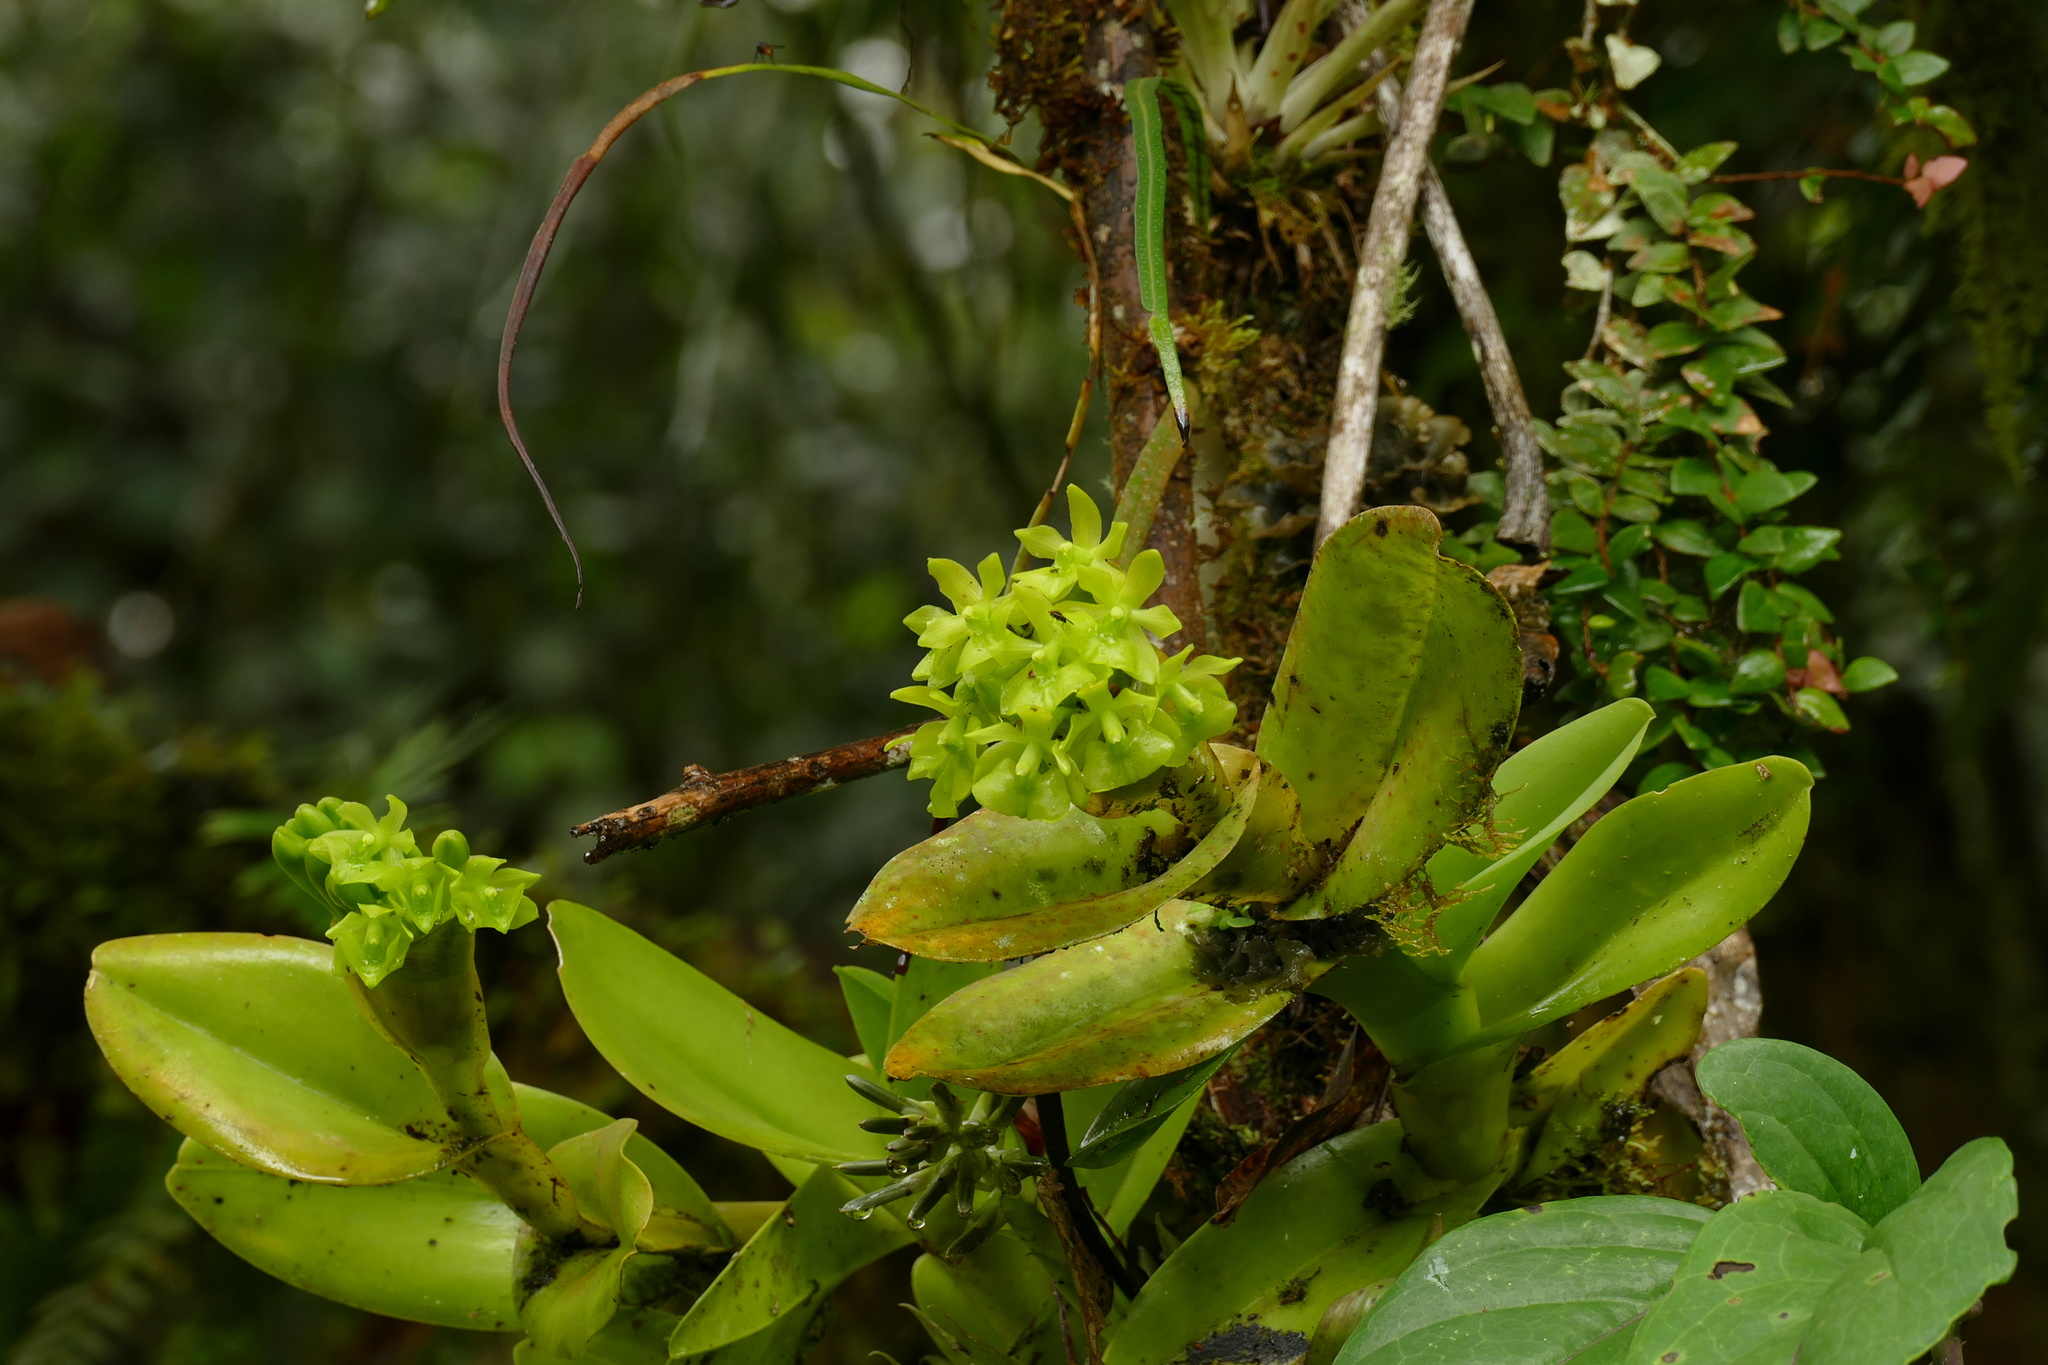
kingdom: Plantae
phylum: Tracheophyta
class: Liliopsida
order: Asparagales
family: Orchidaceae
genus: Epidendrum
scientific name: Epidendrum hardingiae
